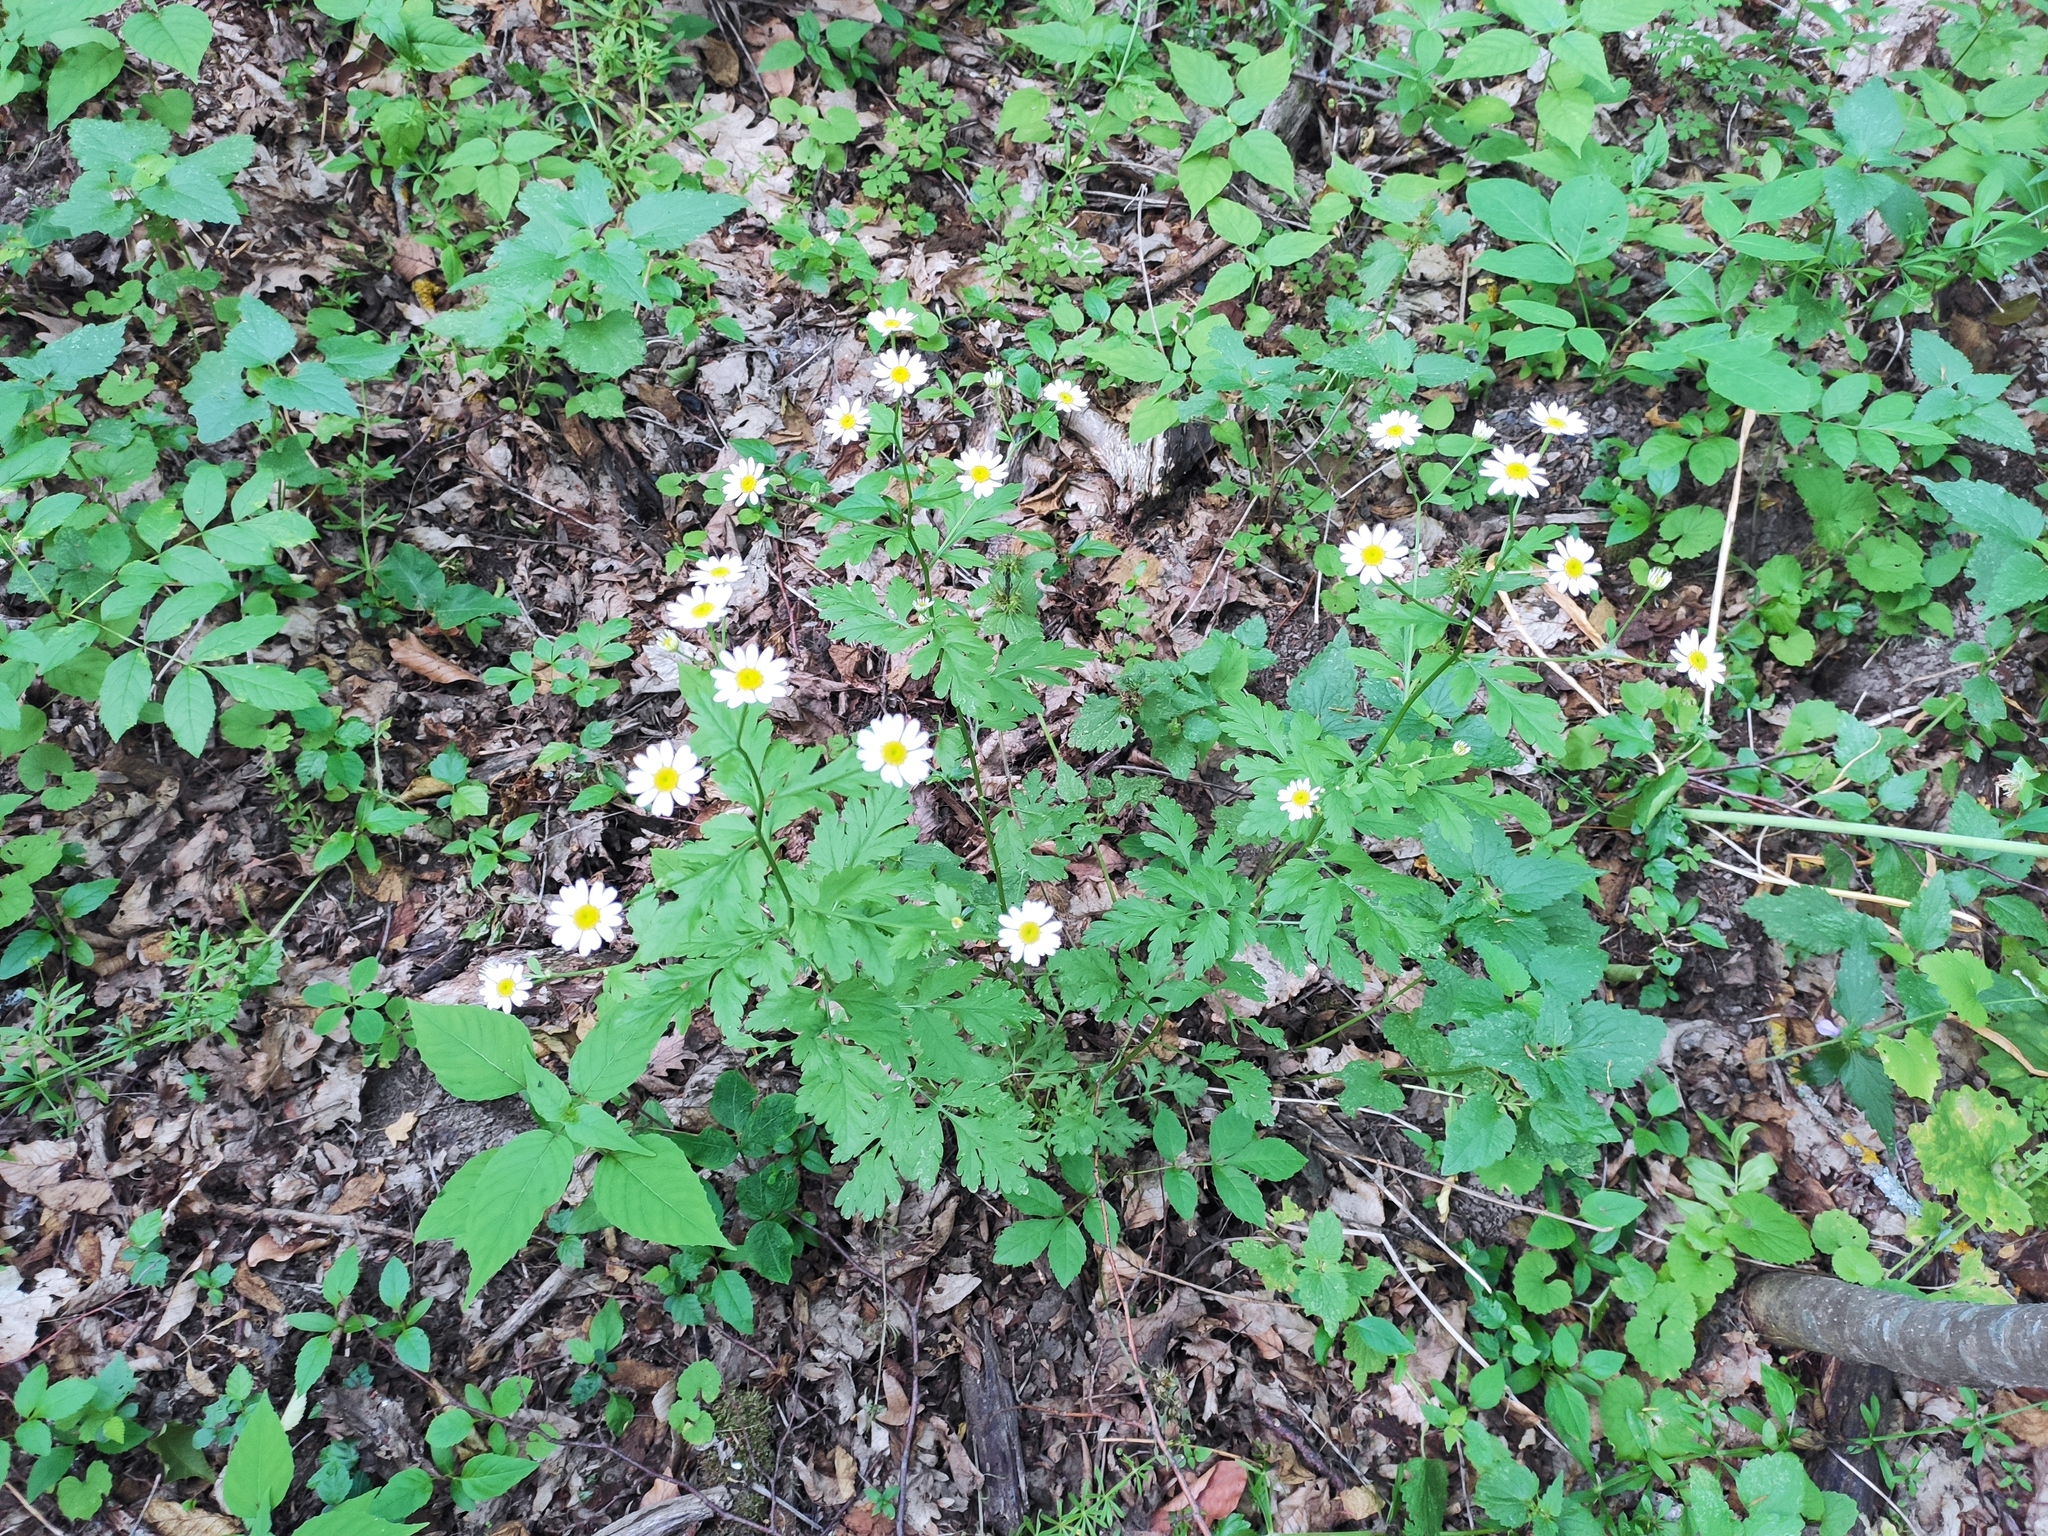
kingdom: Plantae
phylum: Tracheophyta
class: Magnoliopsida
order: Asterales
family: Asteraceae
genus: Tanacetum
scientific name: Tanacetum partheniifolium
